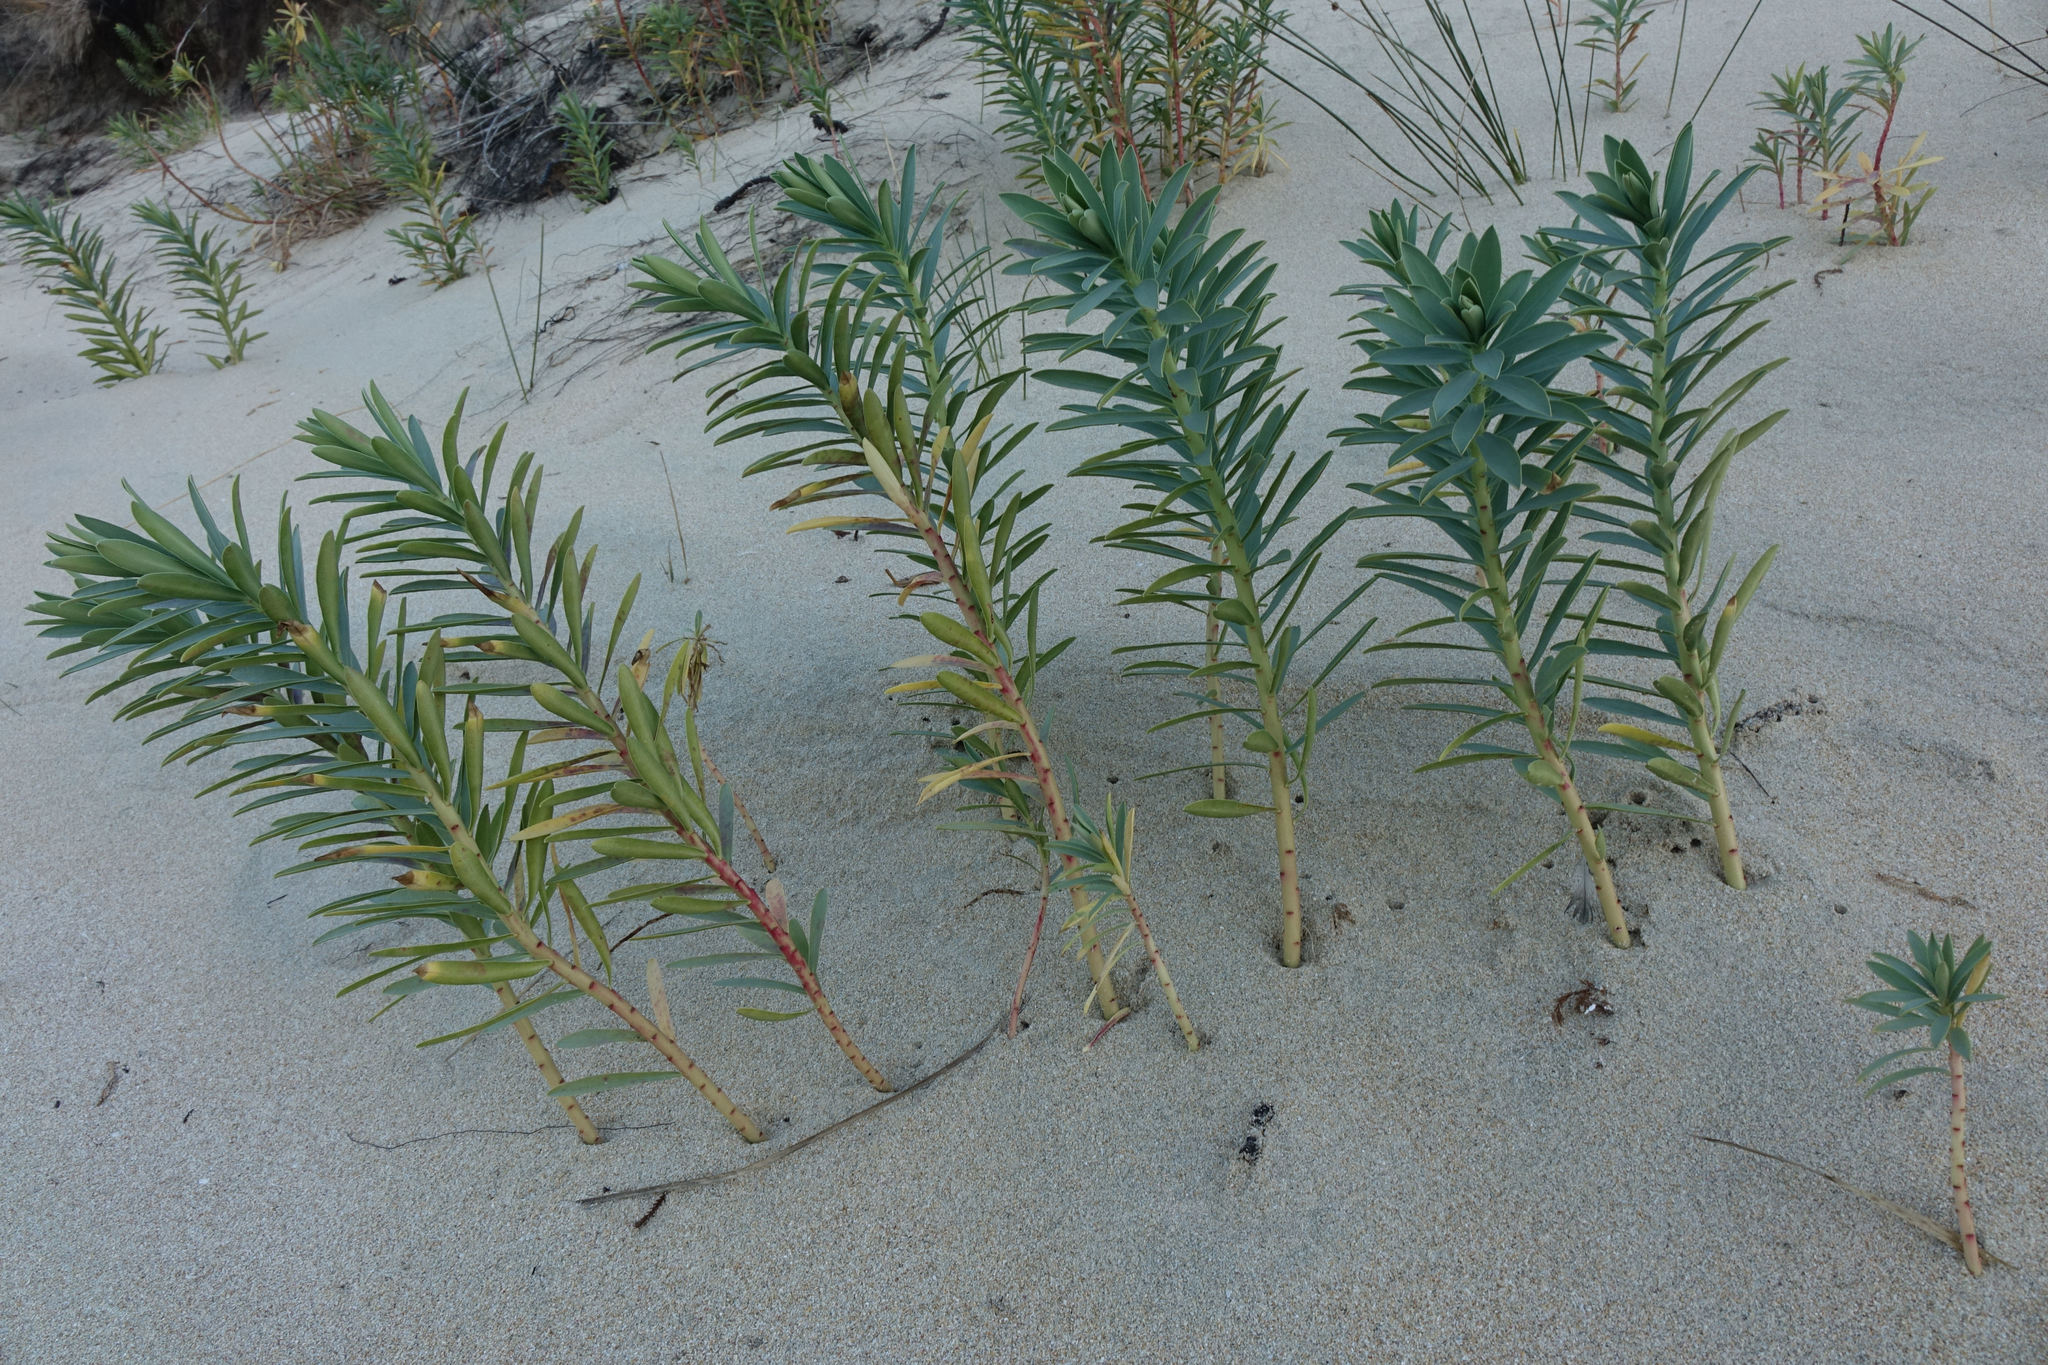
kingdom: Plantae
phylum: Tracheophyta
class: Magnoliopsida
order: Malpighiales
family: Euphorbiaceae
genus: Euphorbia
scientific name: Euphorbia glauca
